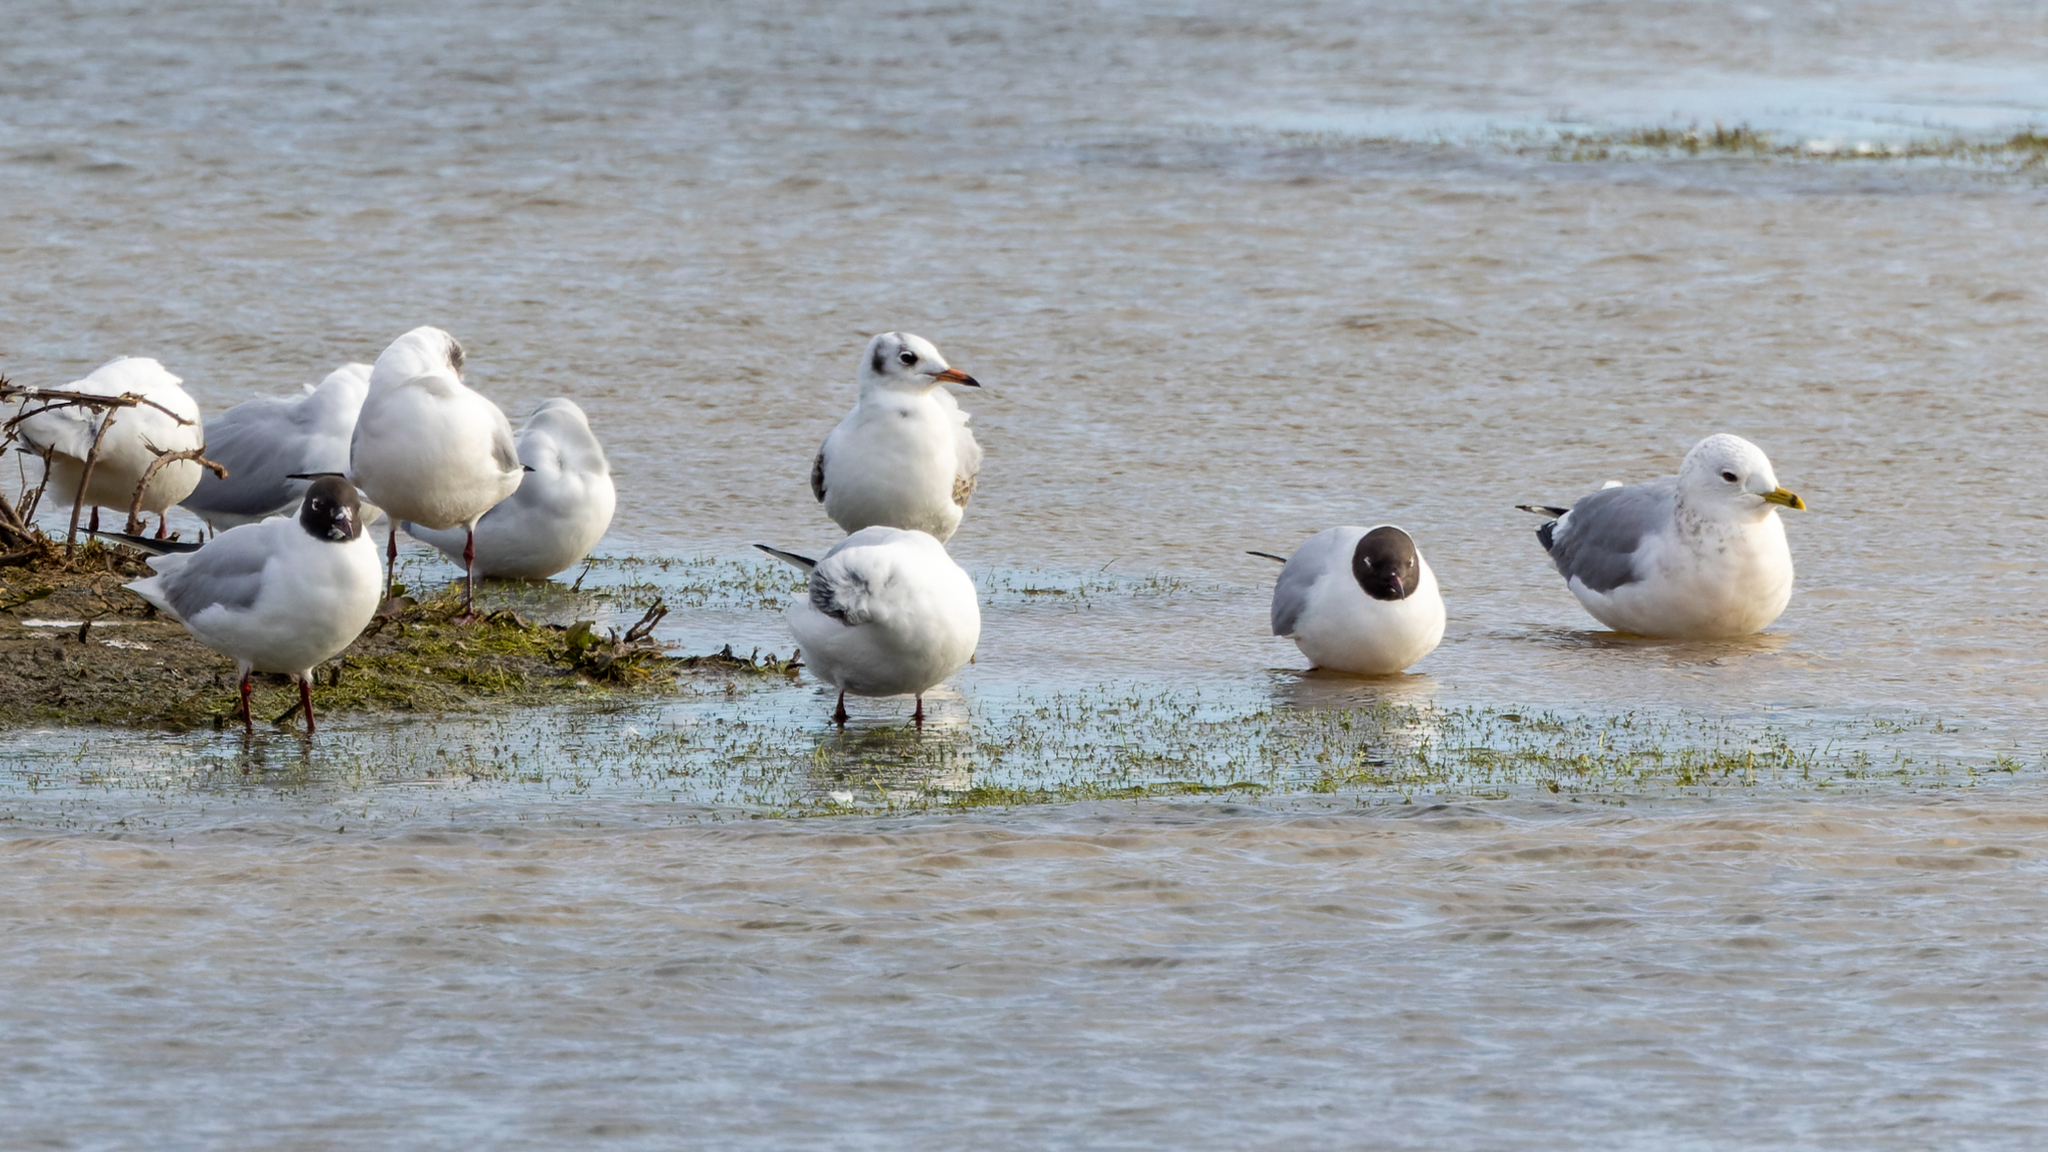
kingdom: Animalia
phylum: Chordata
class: Aves
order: Charadriiformes
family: Laridae
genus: Chroicocephalus
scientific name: Chroicocephalus ridibundus
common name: Black-headed gull
